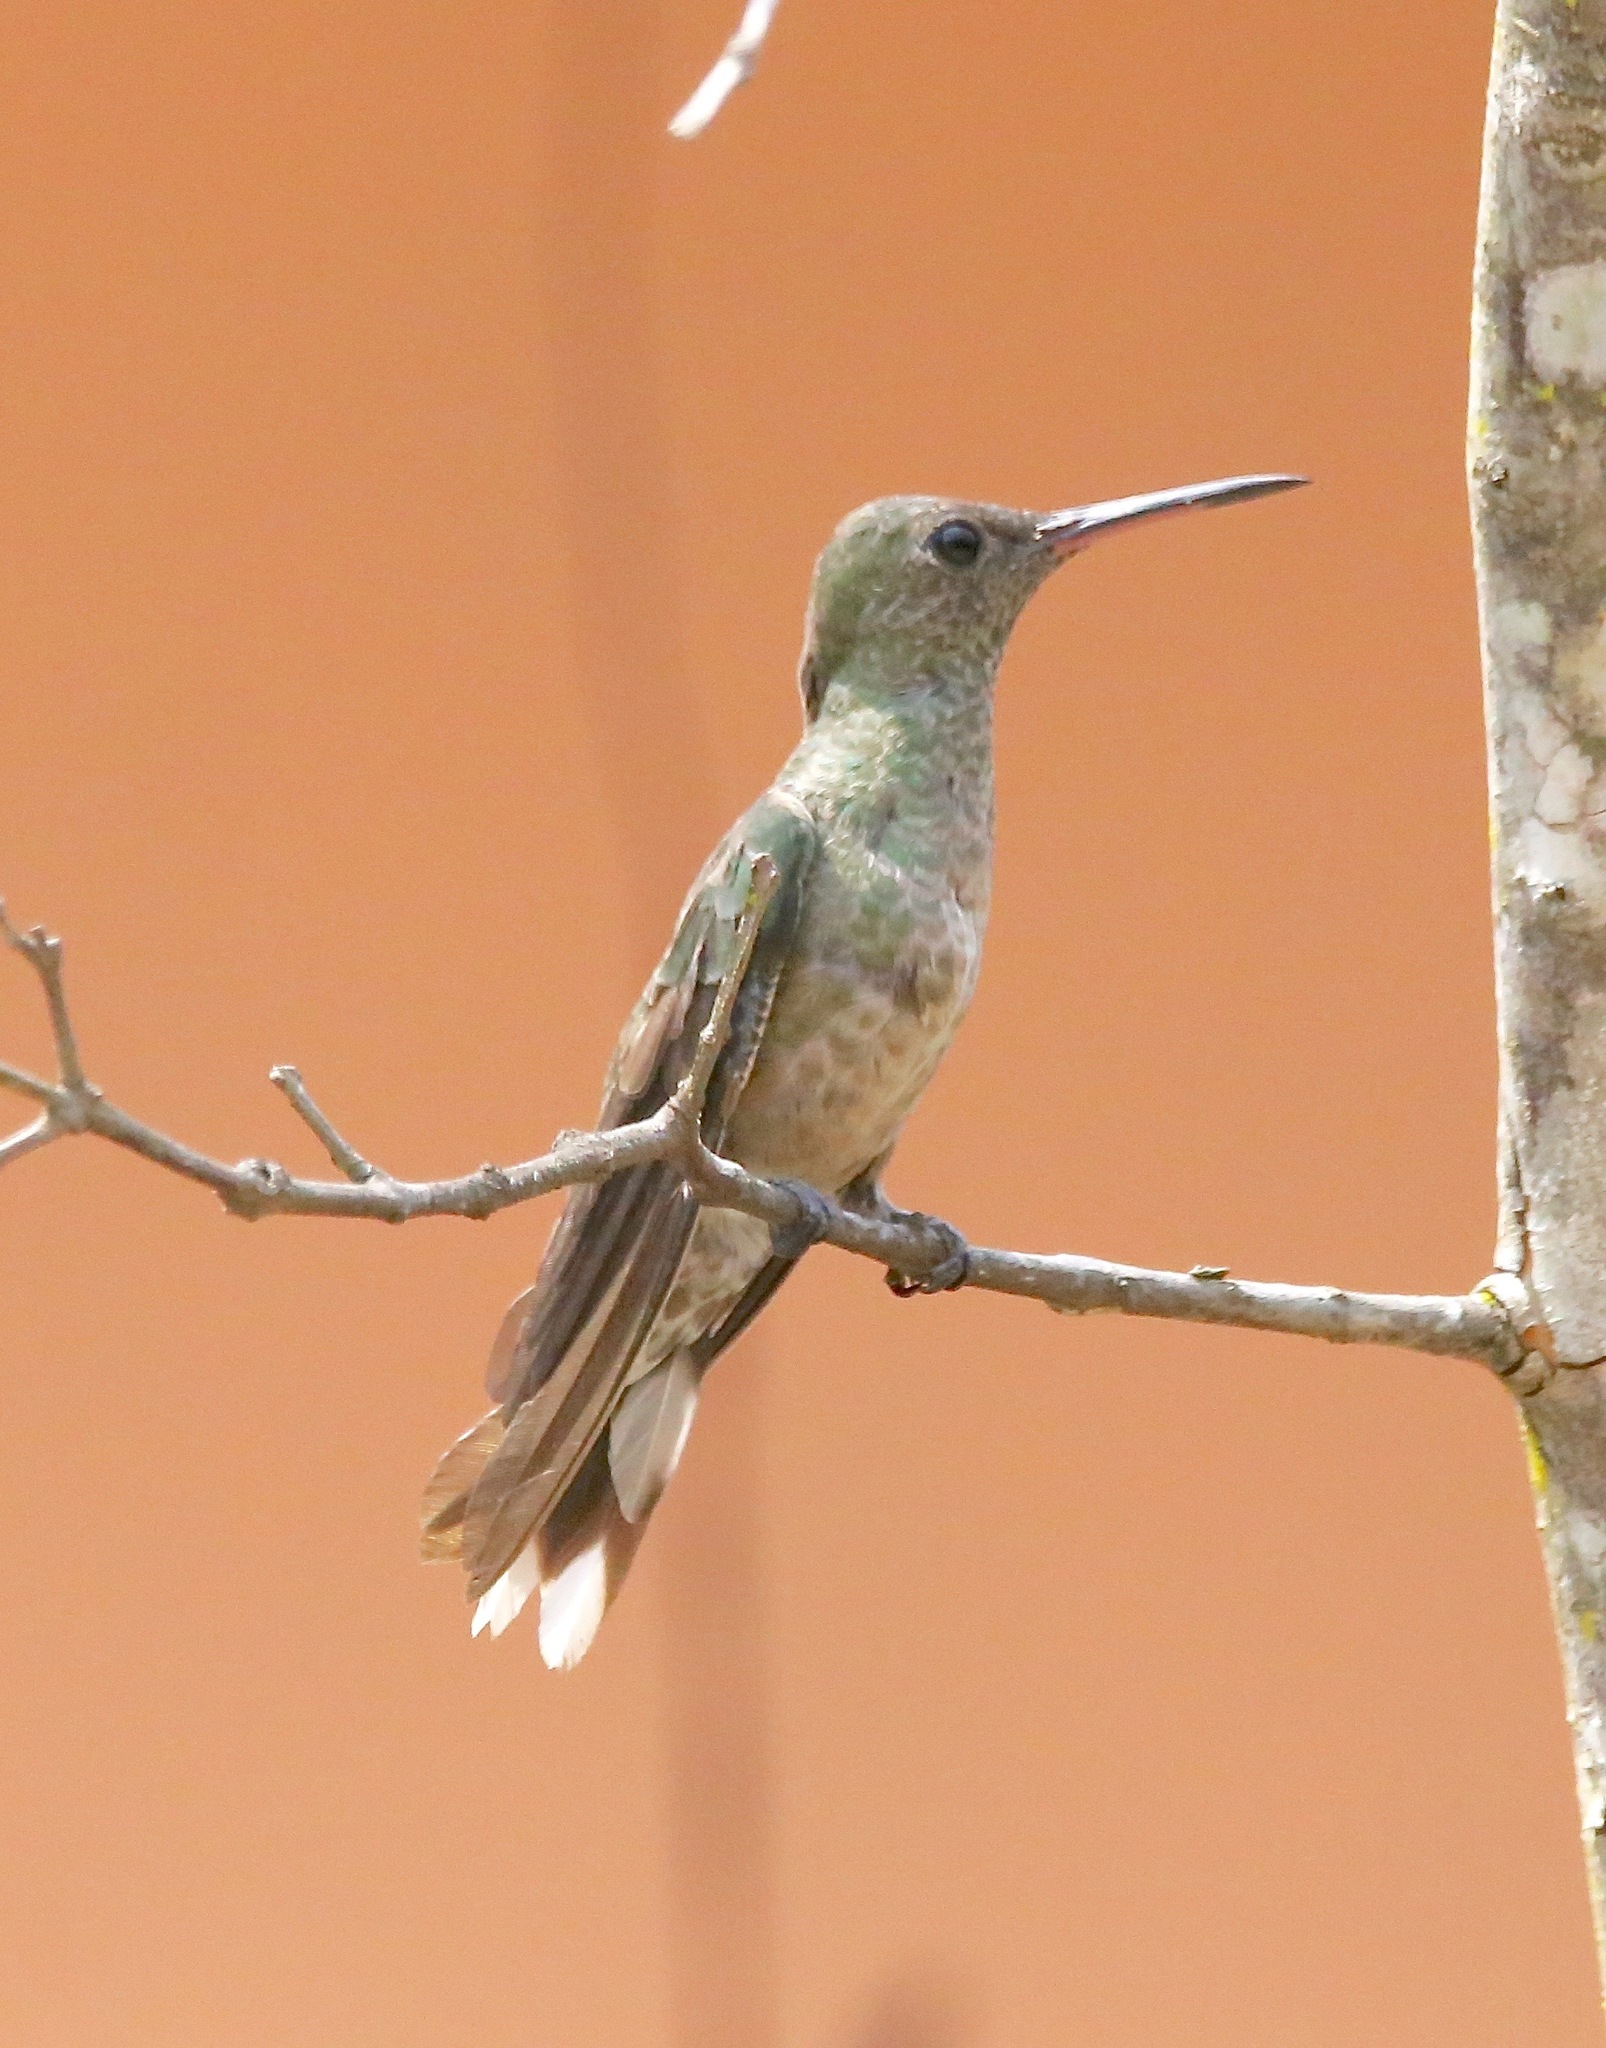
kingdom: Animalia
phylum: Chordata
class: Aves
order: Apodiformes
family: Trochilidae
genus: Phaeochroa
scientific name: Phaeochroa cuvierii
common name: Scaly-breasted hummingbird
